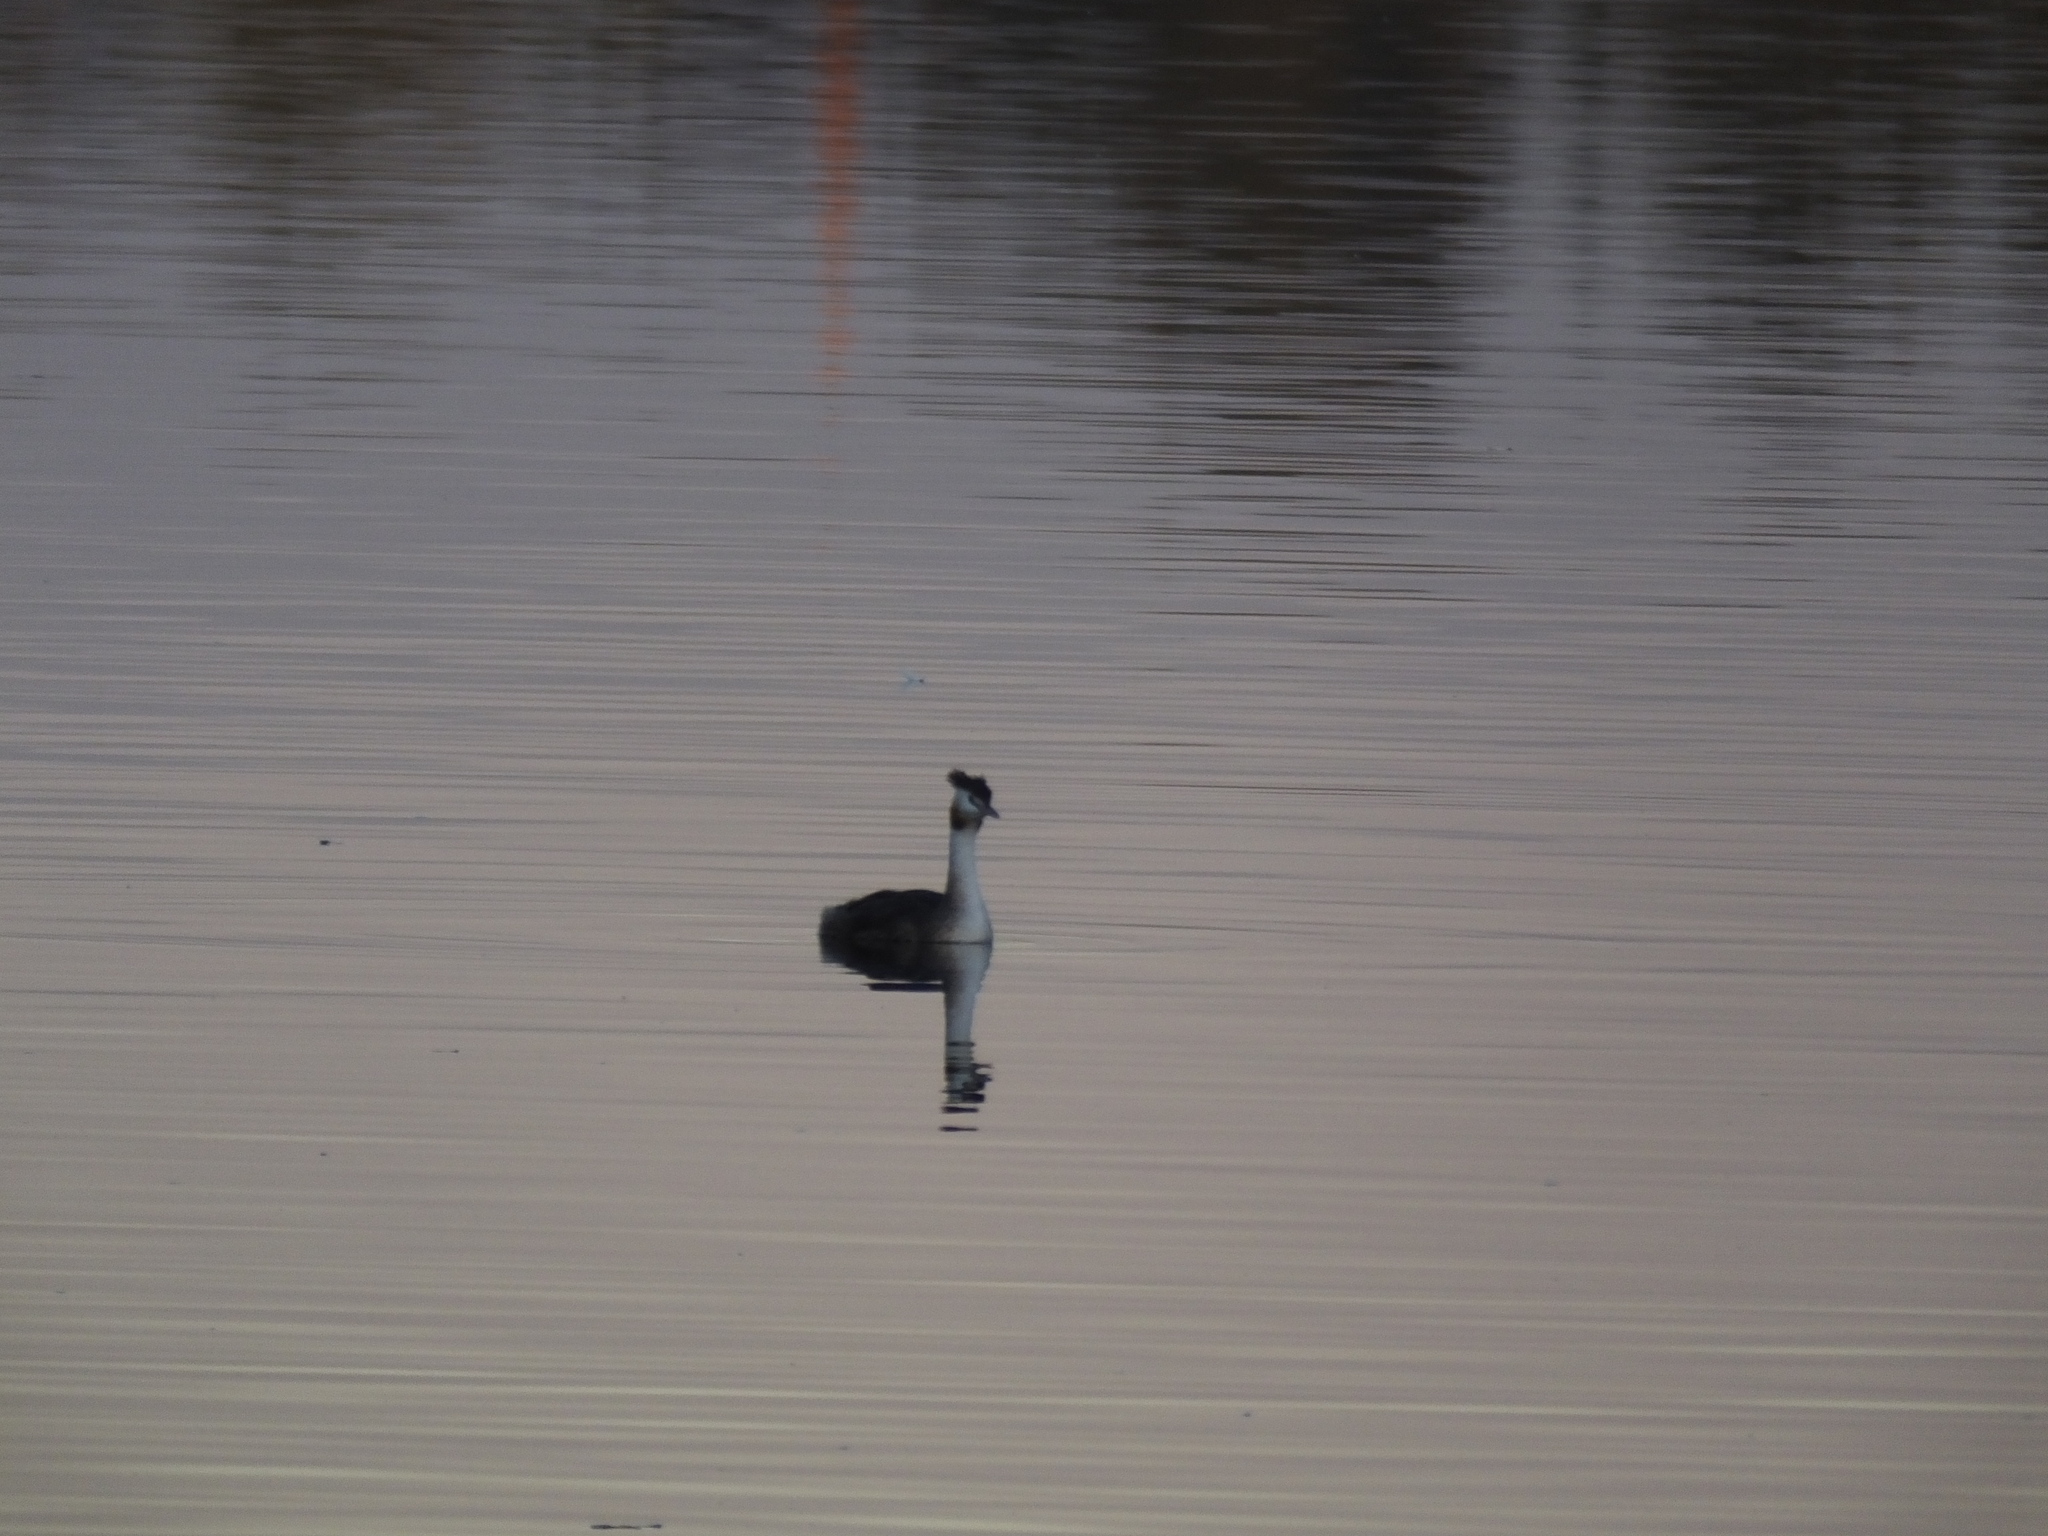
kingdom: Animalia
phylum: Chordata
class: Aves
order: Podicipediformes
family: Podicipedidae
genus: Podiceps
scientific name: Podiceps cristatus
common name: Great crested grebe
